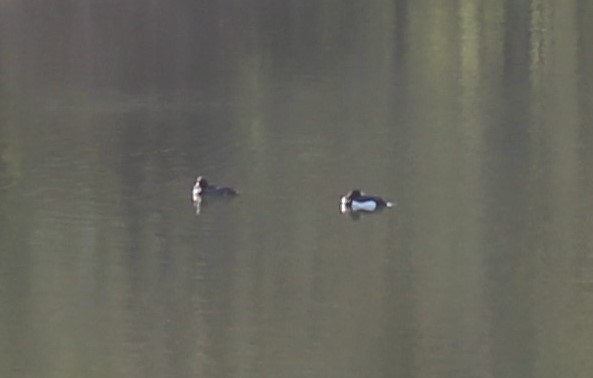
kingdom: Animalia
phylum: Chordata
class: Aves
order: Anseriformes
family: Anatidae
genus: Aythya
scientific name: Aythya fuligula
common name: Tufted duck
